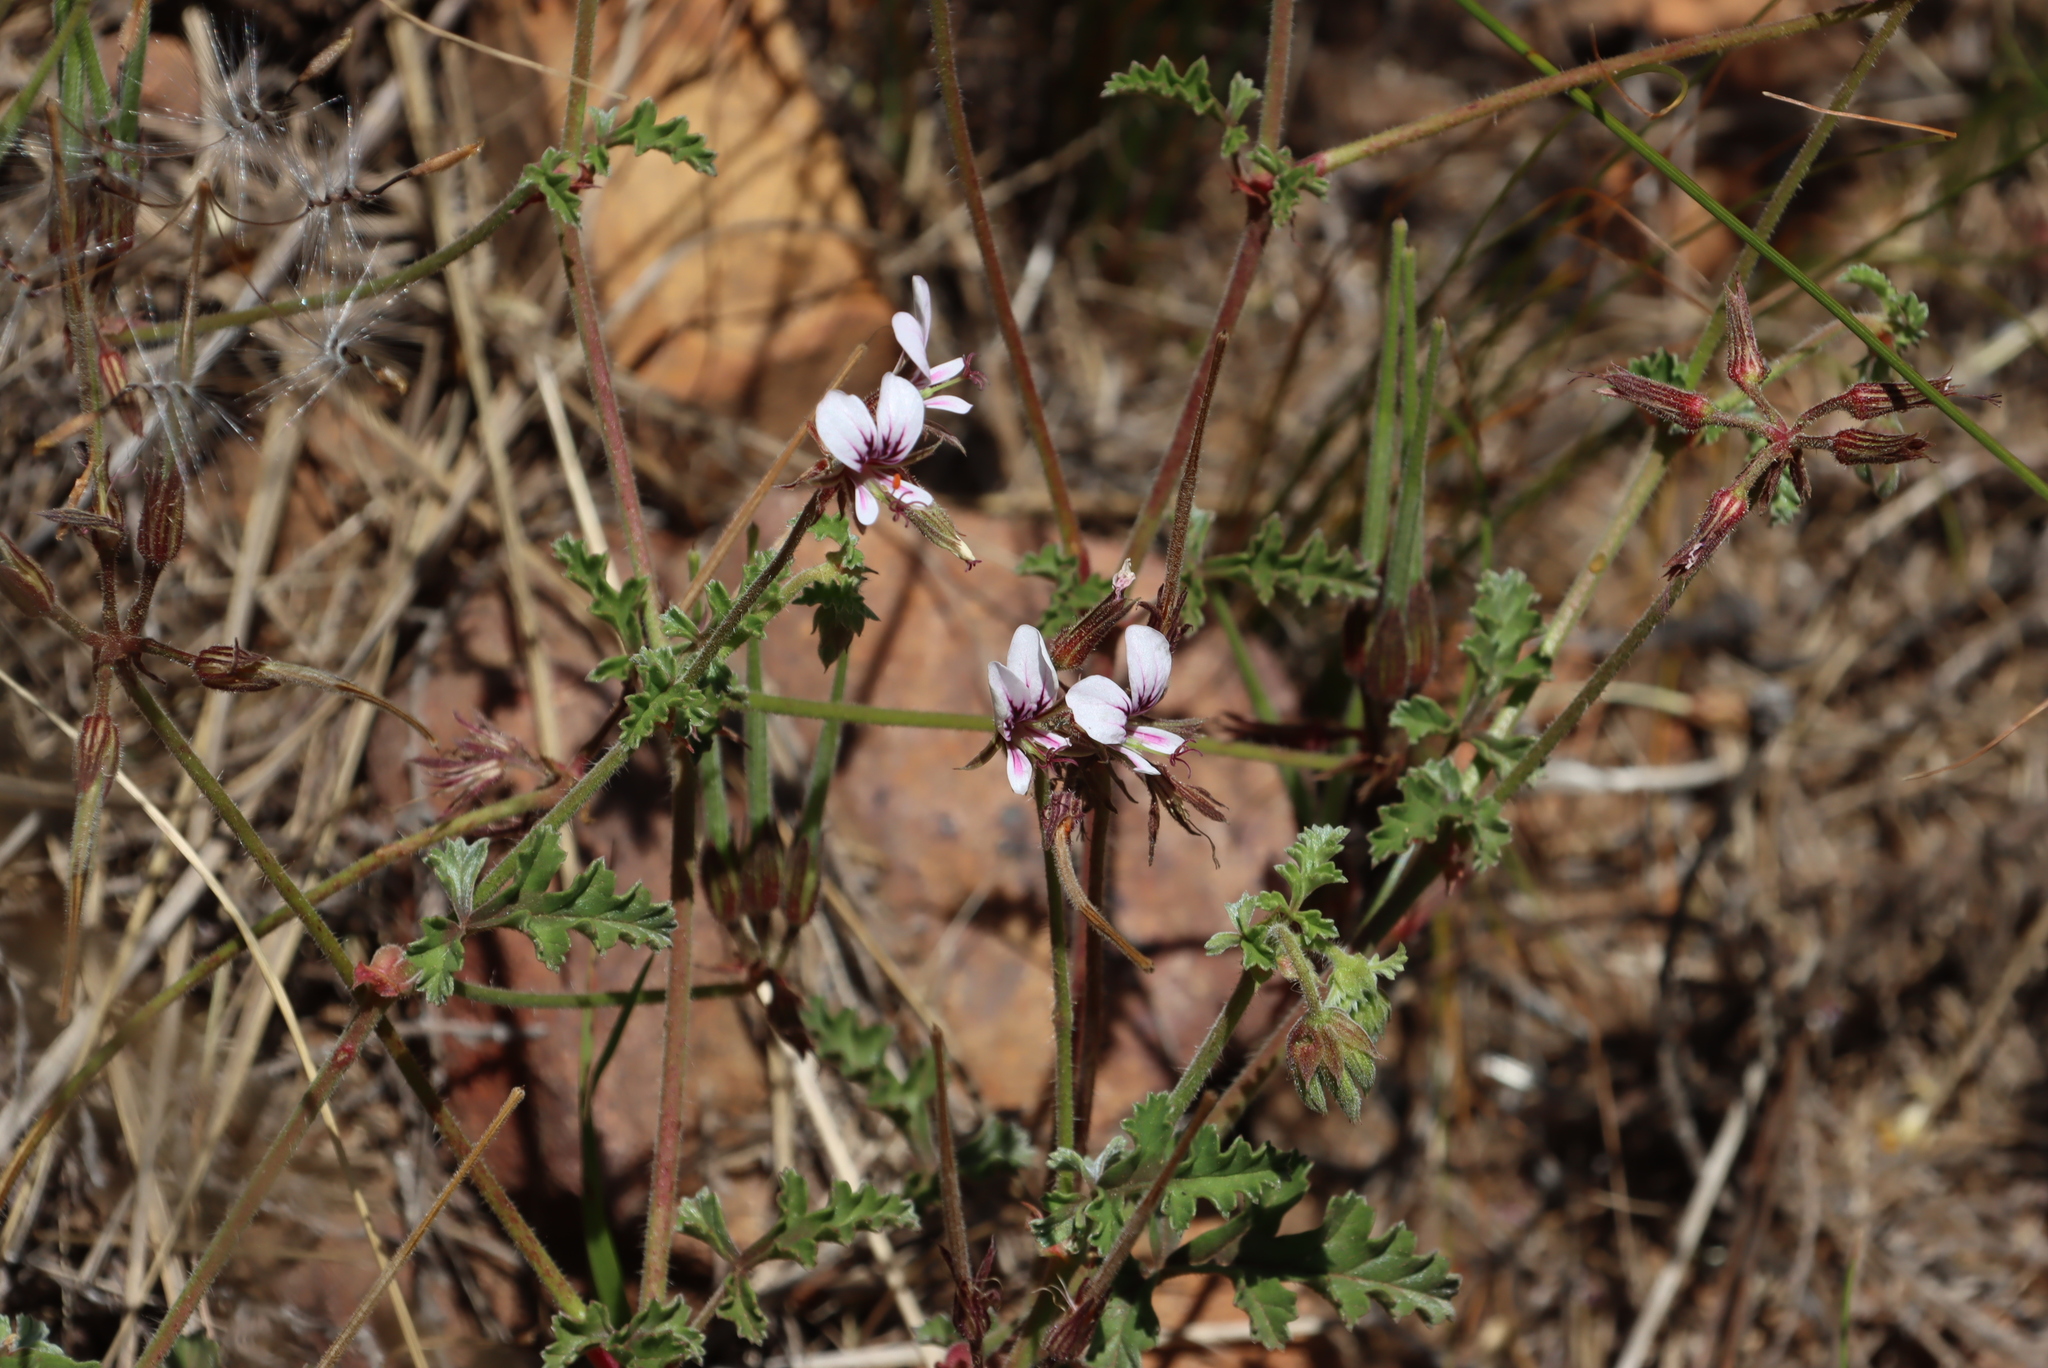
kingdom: Plantae
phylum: Tracheophyta
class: Magnoliopsida
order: Geraniales
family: Geraniaceae
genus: Pelargonium
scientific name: Pelargonium candicans
